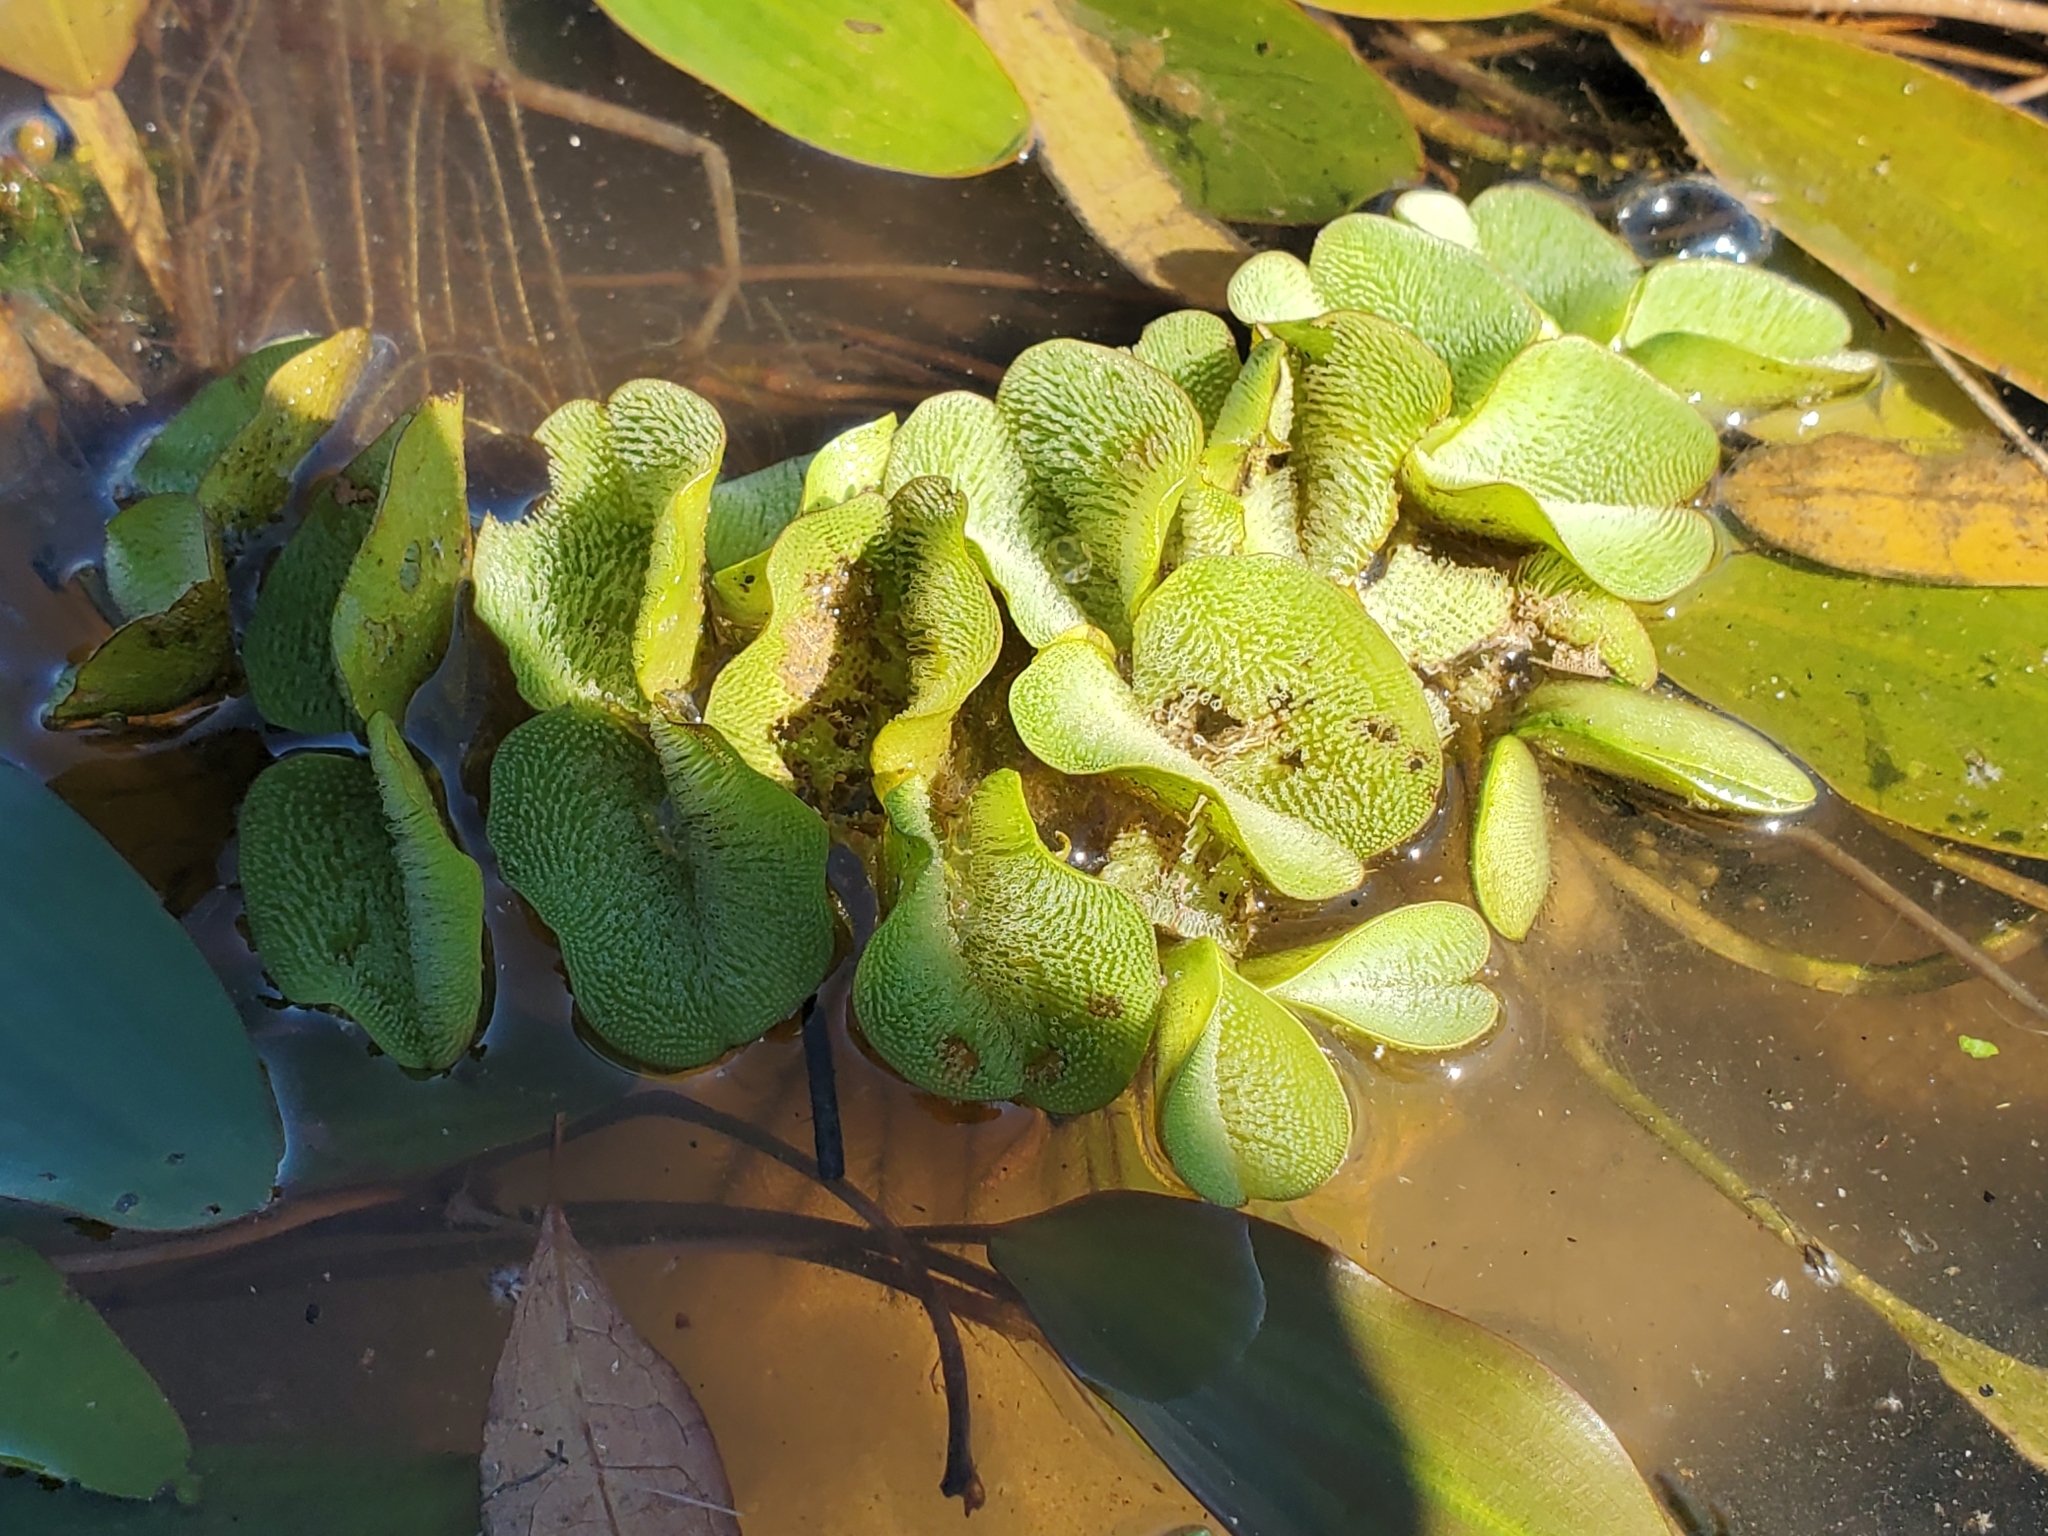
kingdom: Plantae
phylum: Tracheophyta
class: Polypodiopsida
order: Salviniales
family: Salviniaceae
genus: Salvinia
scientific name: Salvinia molesta
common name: Kariba weed
